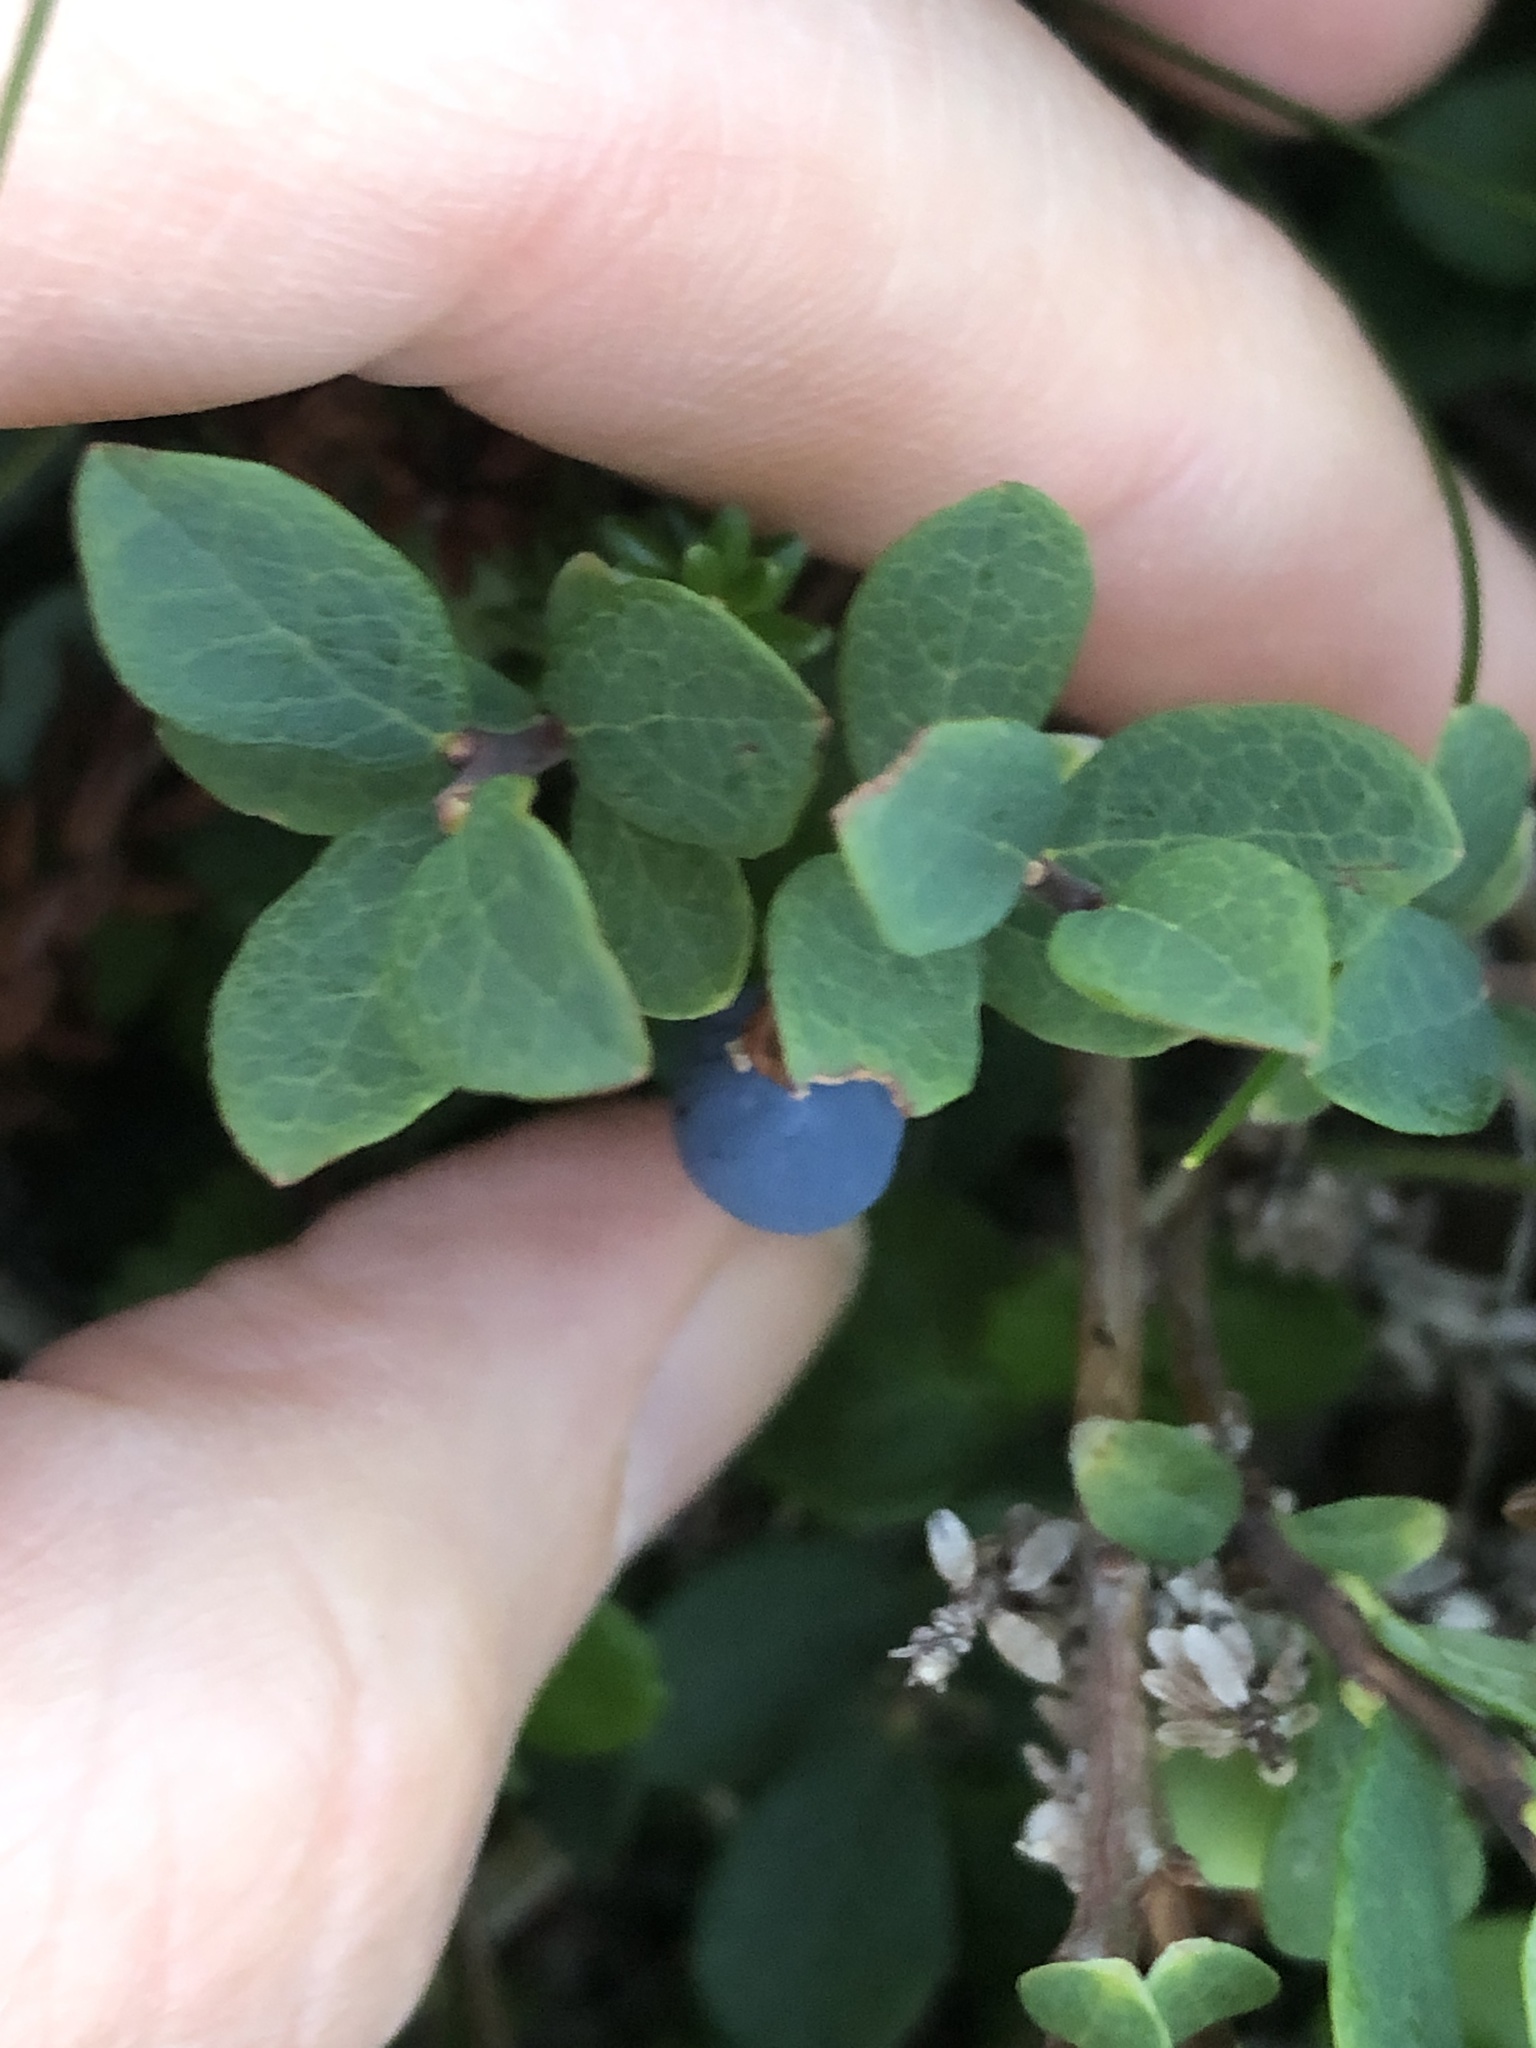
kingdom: Plantae
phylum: Tracheophyta
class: Magnoliopsida
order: Ericales
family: Ericaceae
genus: Vaccinium
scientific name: Vaccinium uliginosum
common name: Bog bilberry
